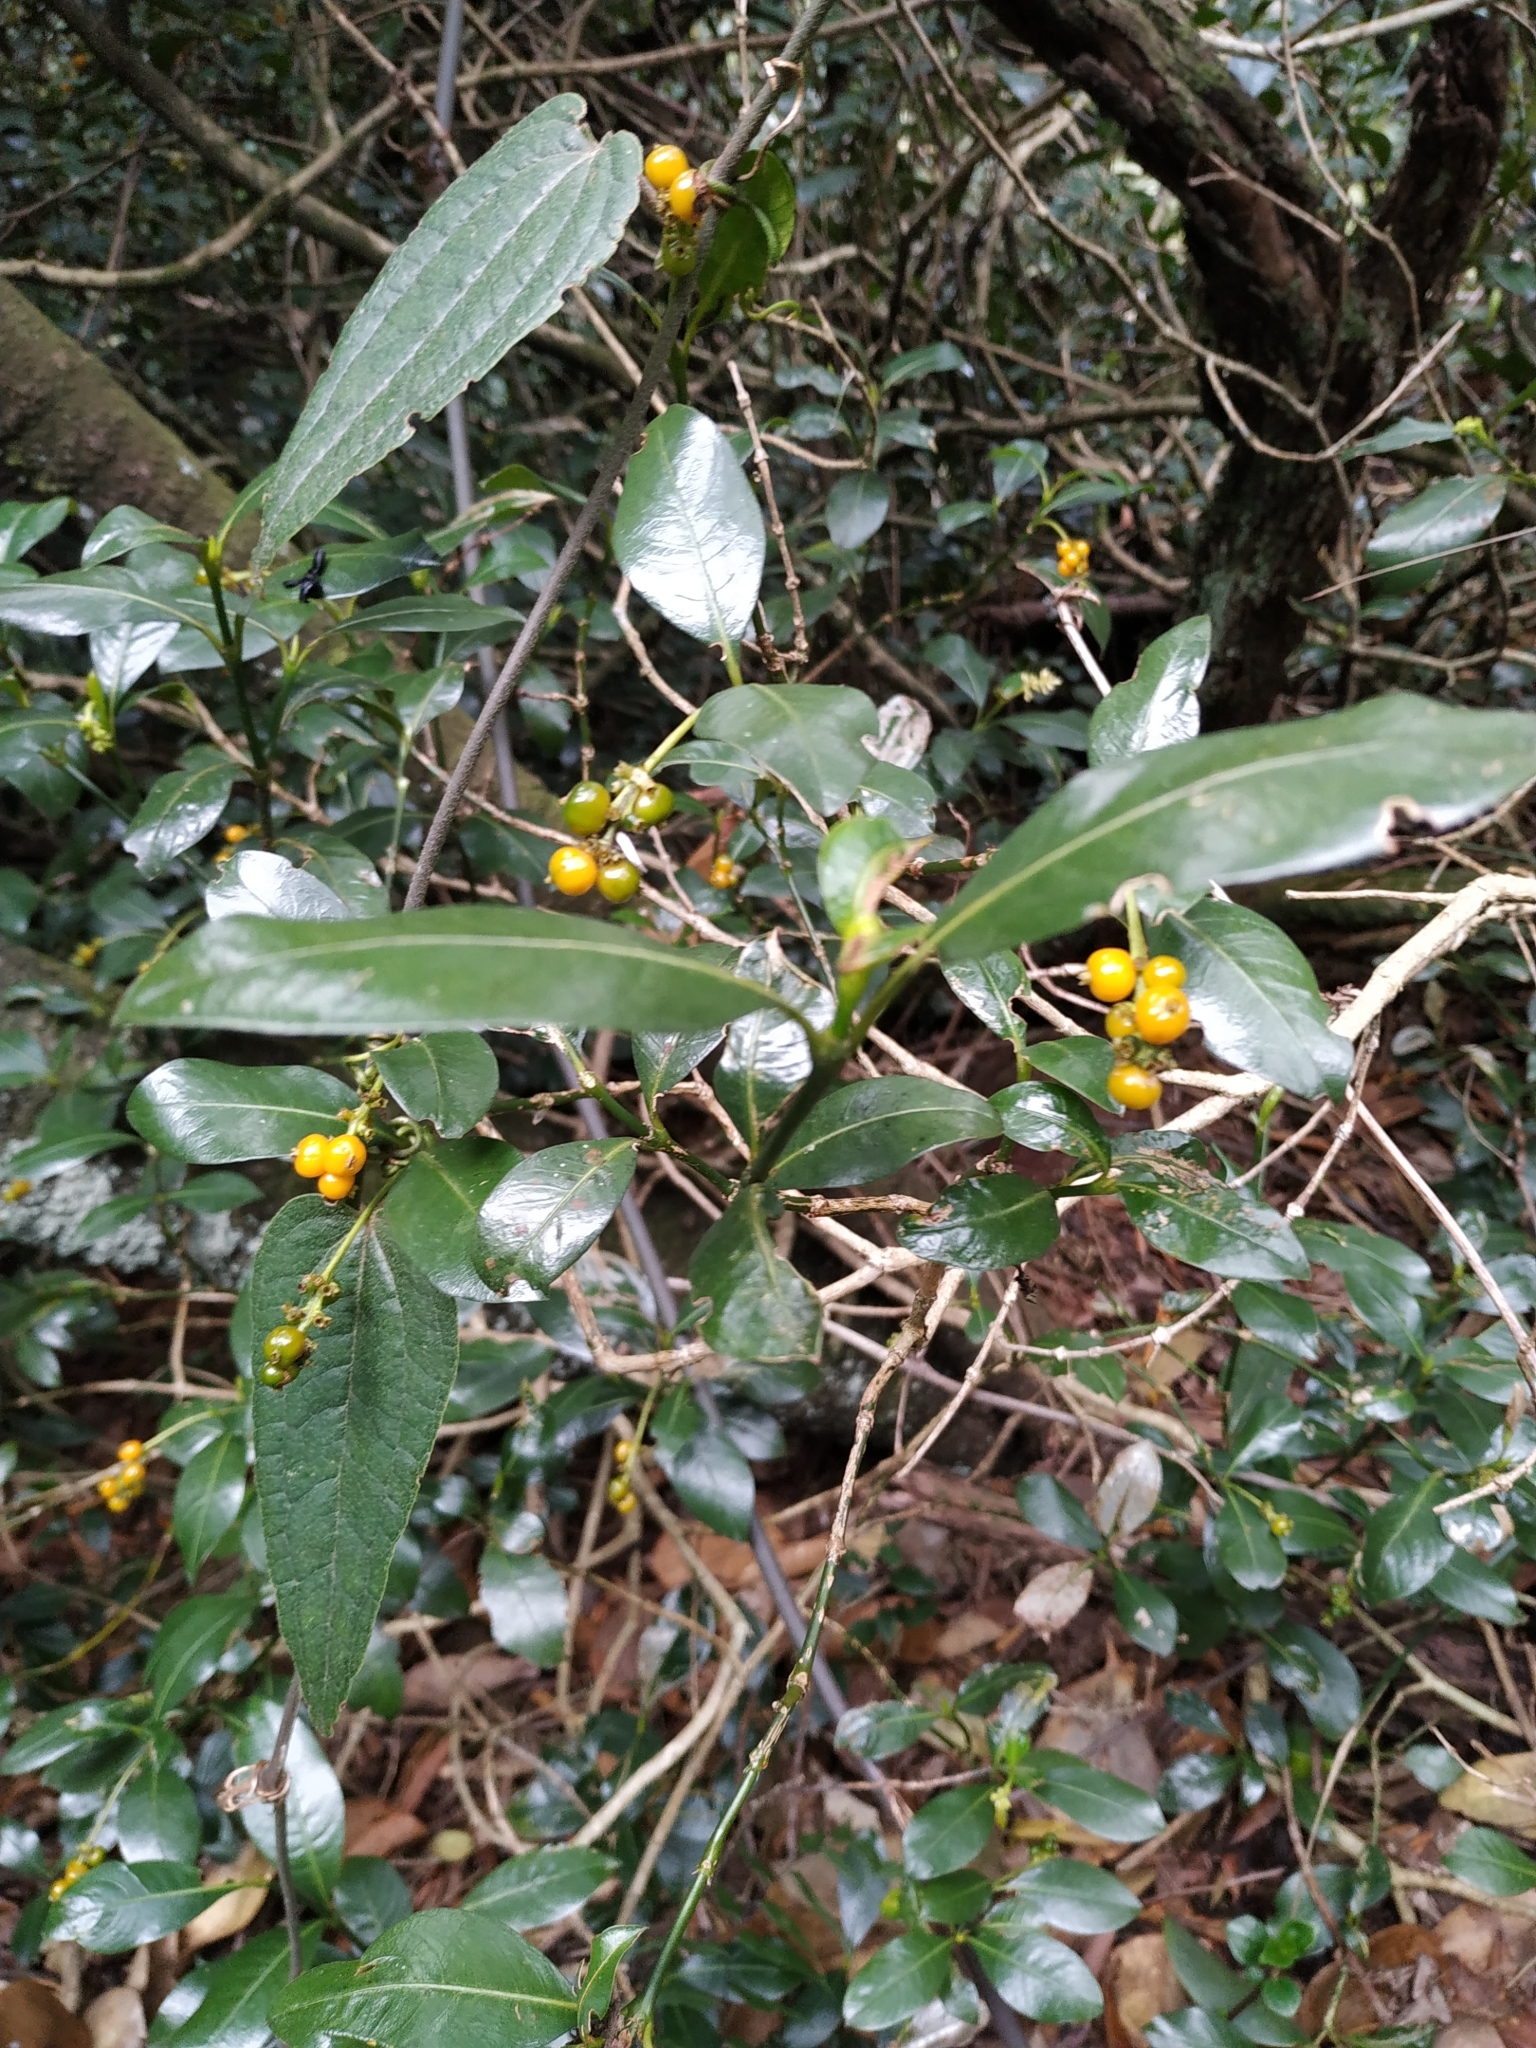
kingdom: Plantae
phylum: Tracheophyta
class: Magnoliopsida
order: Gentianales
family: Rubiaceae
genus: Palicourea
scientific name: Palicourea boqueronensis
